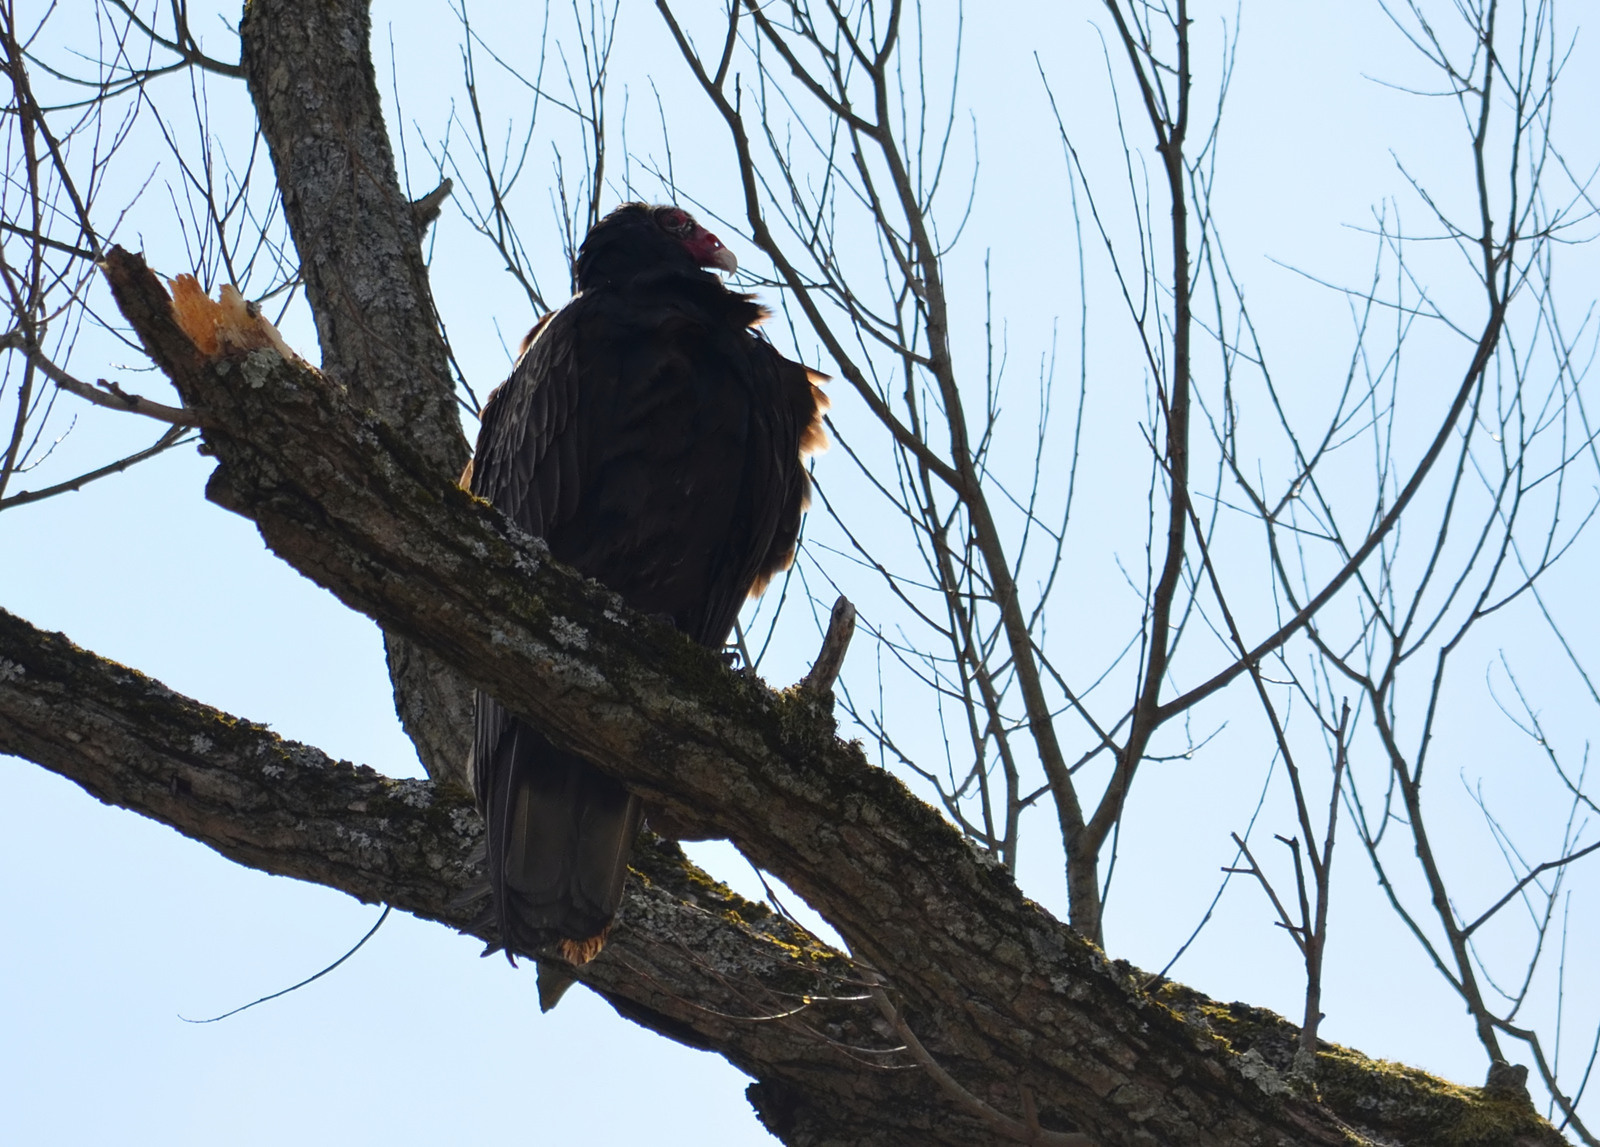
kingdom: Animalia
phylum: Chordata
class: Aves
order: Accipitriformes
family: Cathartidae
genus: Cathartes
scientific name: Cathartes aura
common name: Turkey vulture
